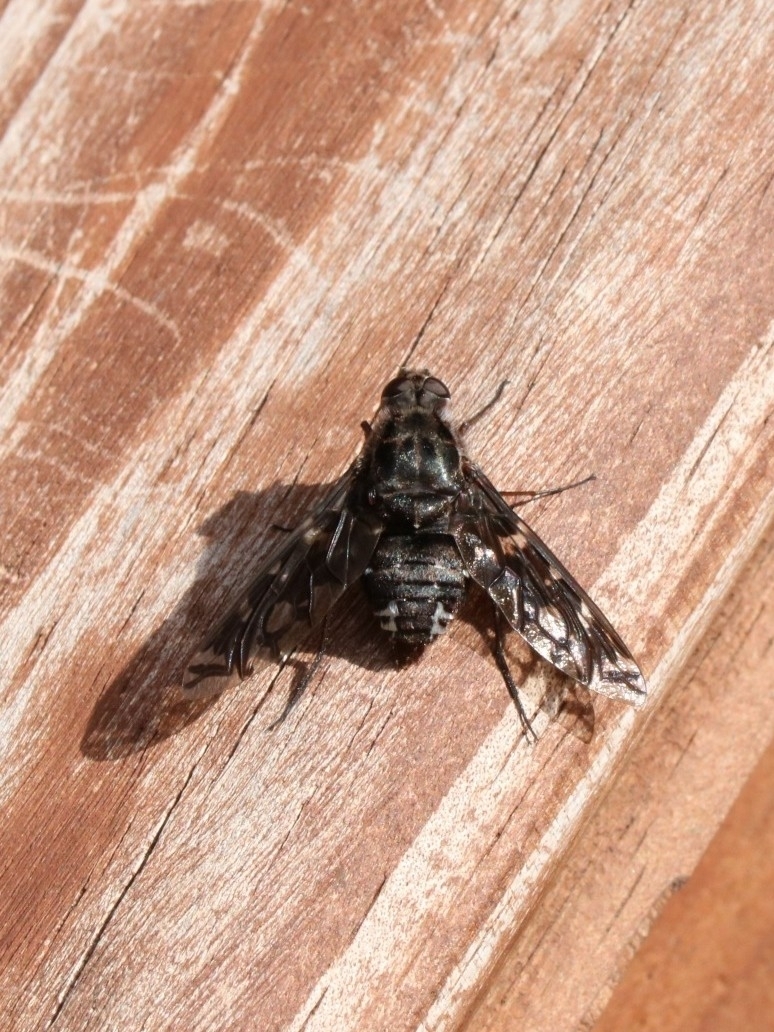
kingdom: Animalia
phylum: Arthropoda
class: Insecta
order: Diptera
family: Bombyliidae
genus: Xenox
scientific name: Xenox tigrinus
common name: Tiger bee fly
